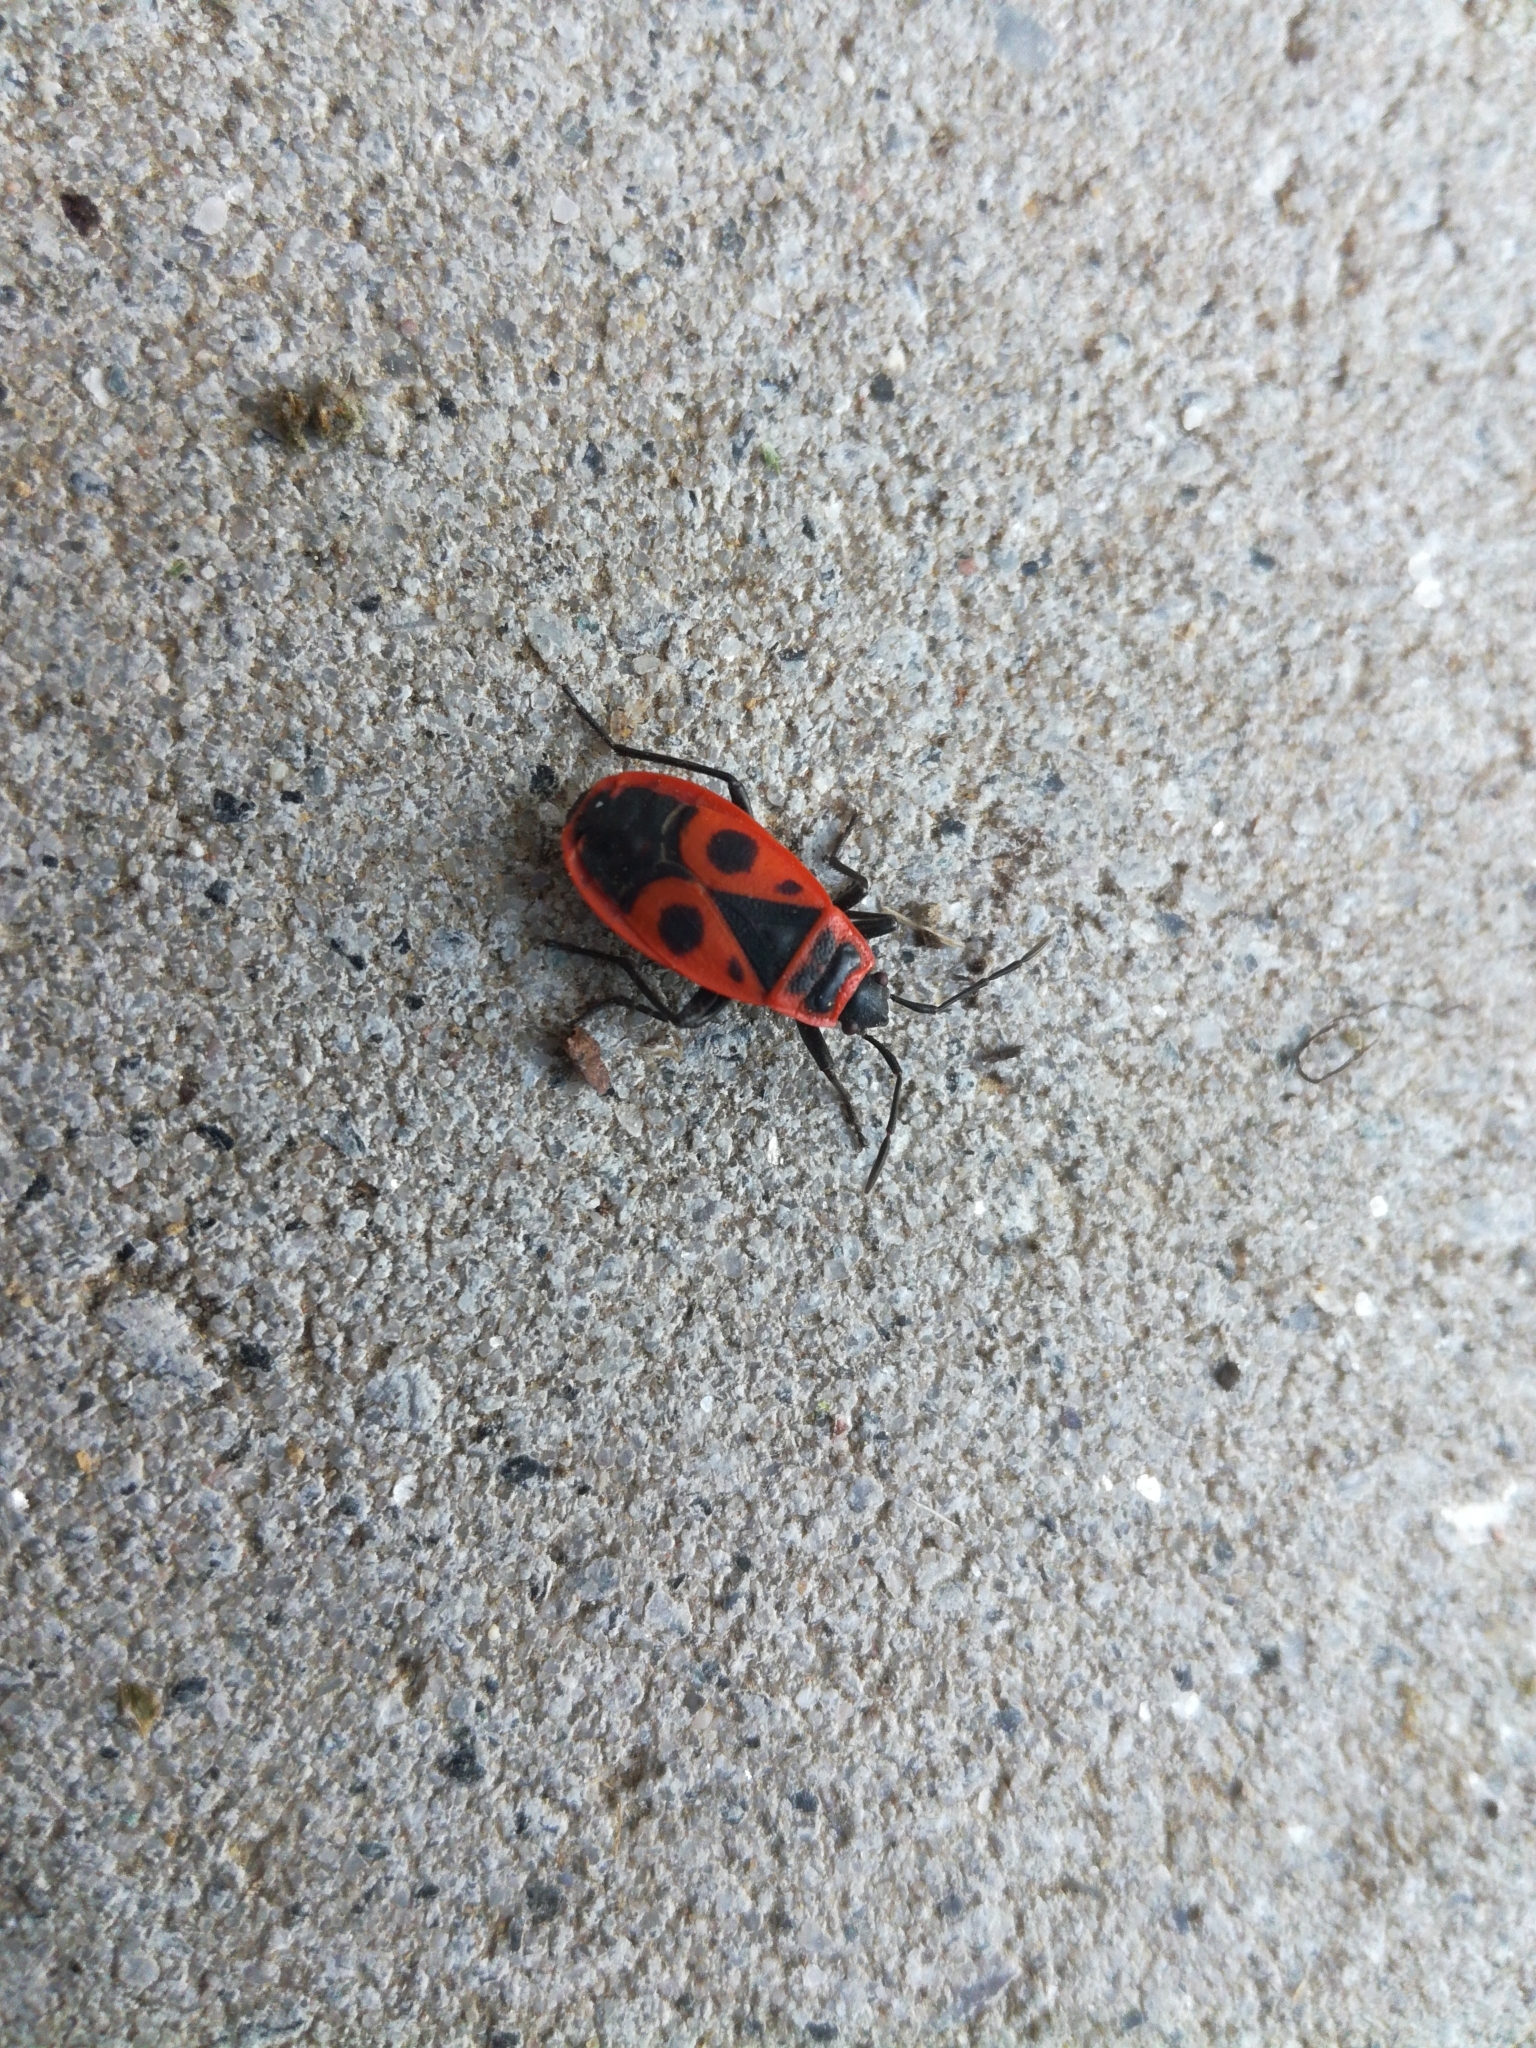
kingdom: Animalia
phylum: Arthropoda
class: Insecta
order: Hemiptera
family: Pyrrhocoridae
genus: Pyrrhocoris
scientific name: Pyrrhocoris apterus
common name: Firebug
